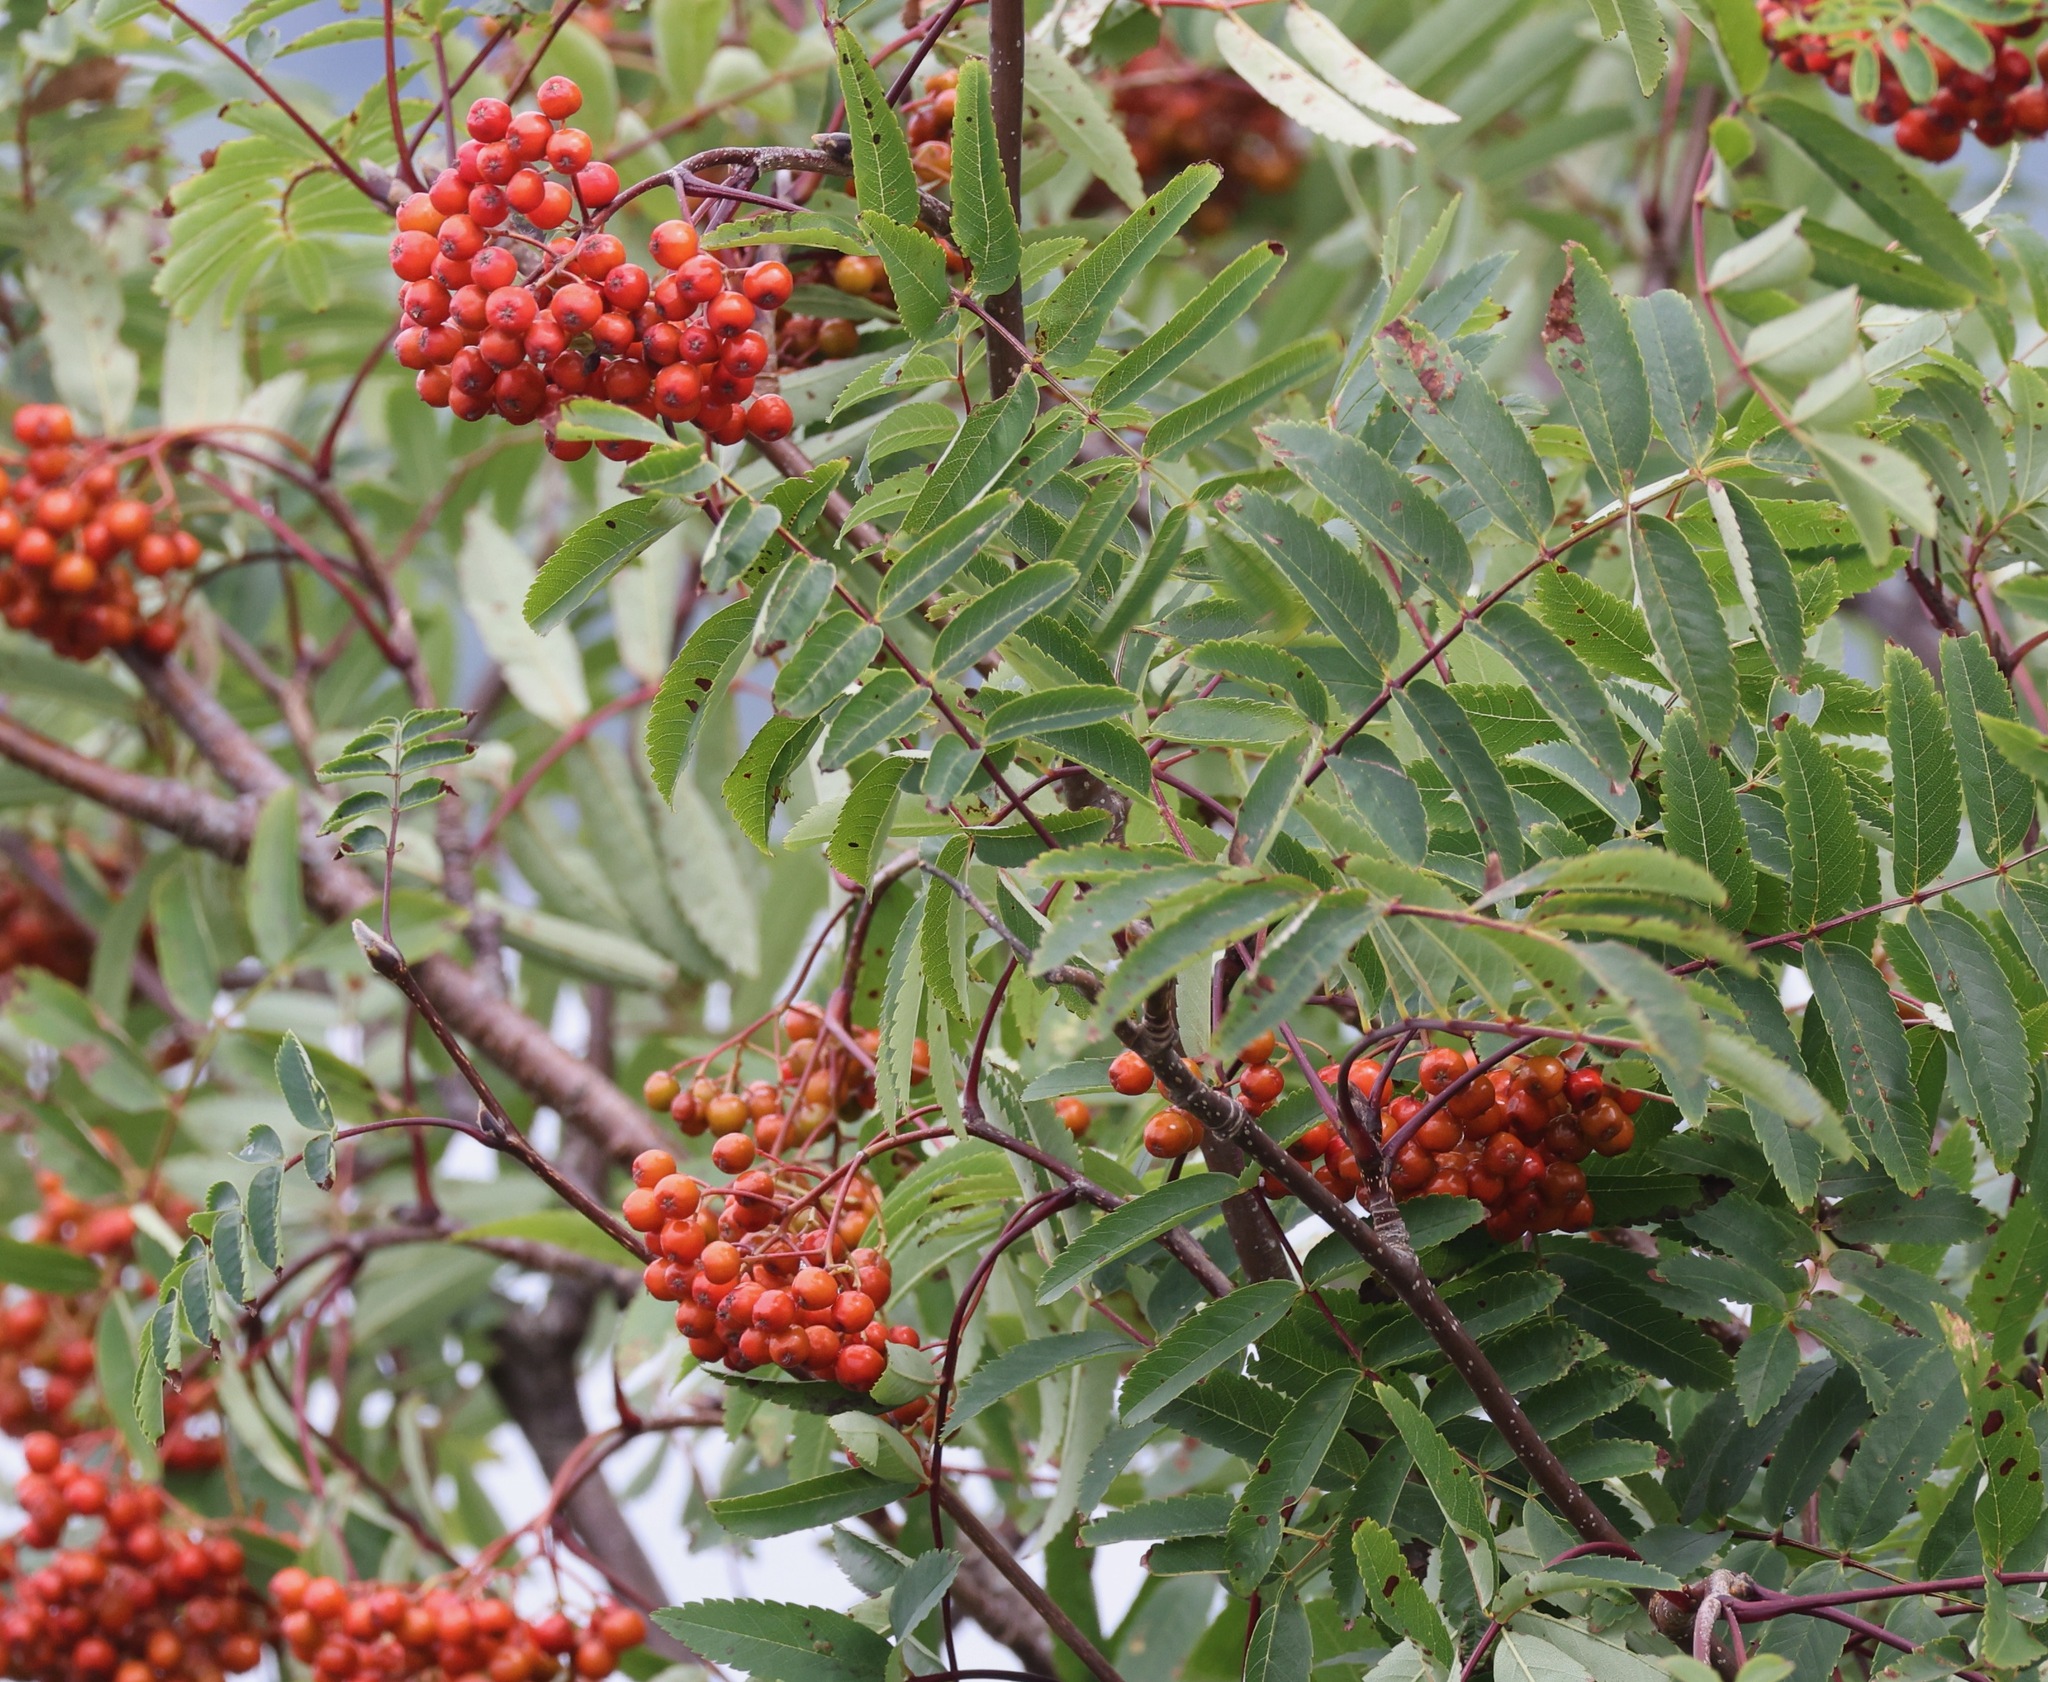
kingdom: Plantae
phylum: Tracheophyta
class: Magnoliopsida
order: Rosales
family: Rosaceae
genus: Sorbus
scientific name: Sorbus aucuparia
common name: Rowan
